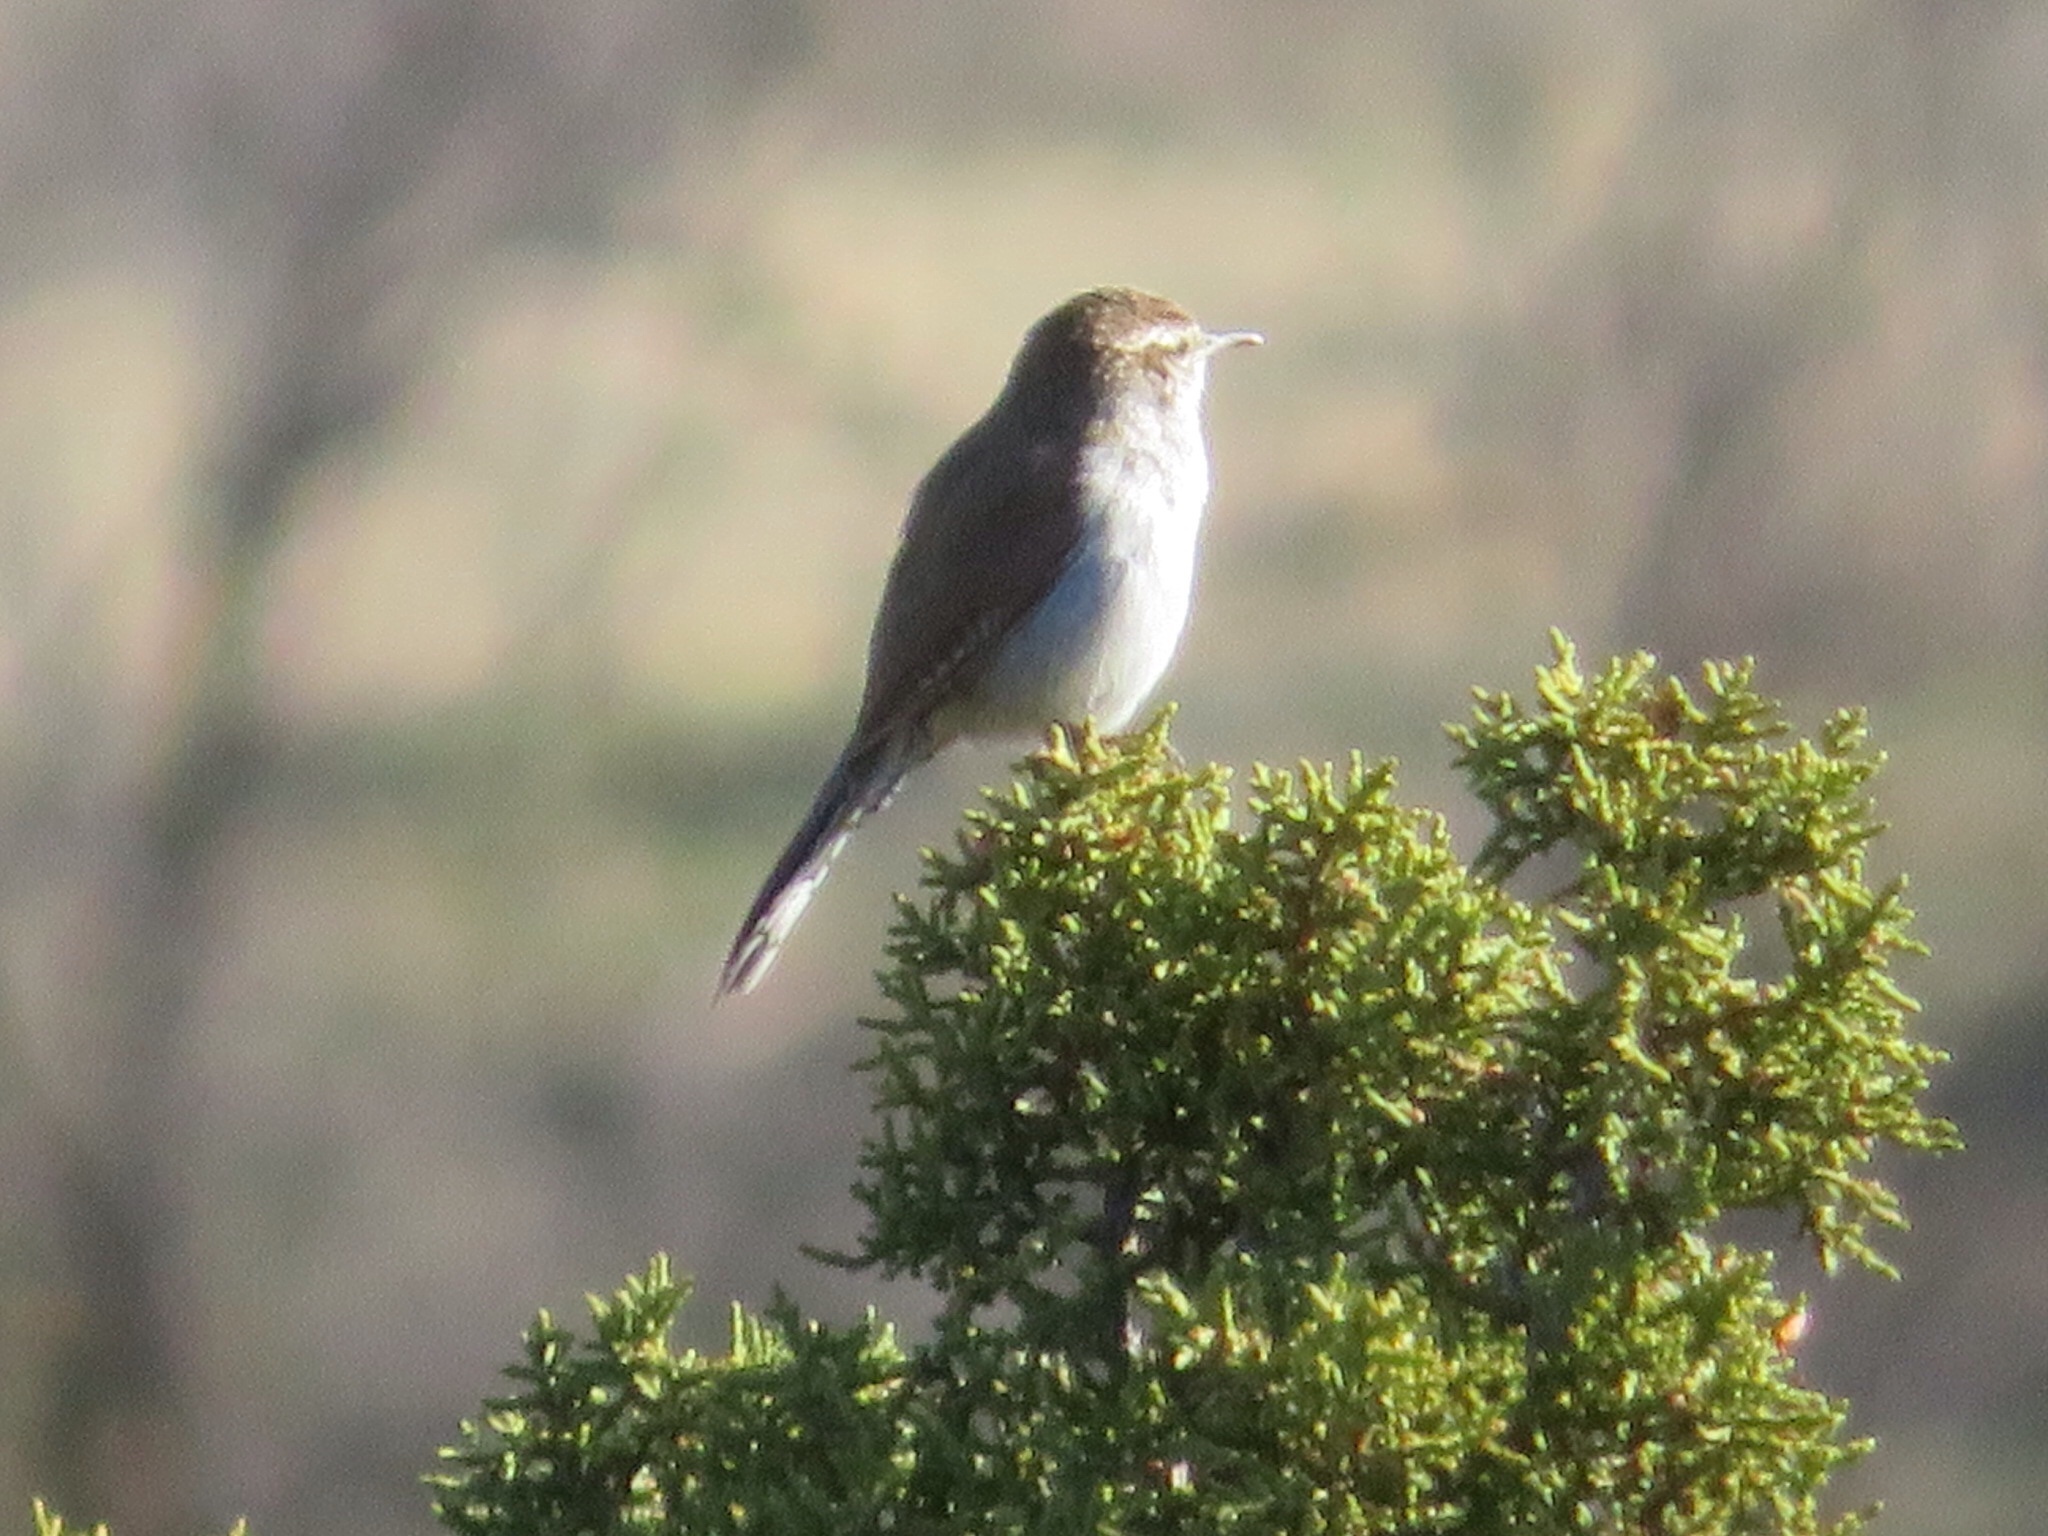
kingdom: Animalia
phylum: Chordata
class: Aves
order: Passeriformes
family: Troglodytidae
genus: Thryomanes
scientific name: Thryomanes bewickii
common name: Bewick's wren
